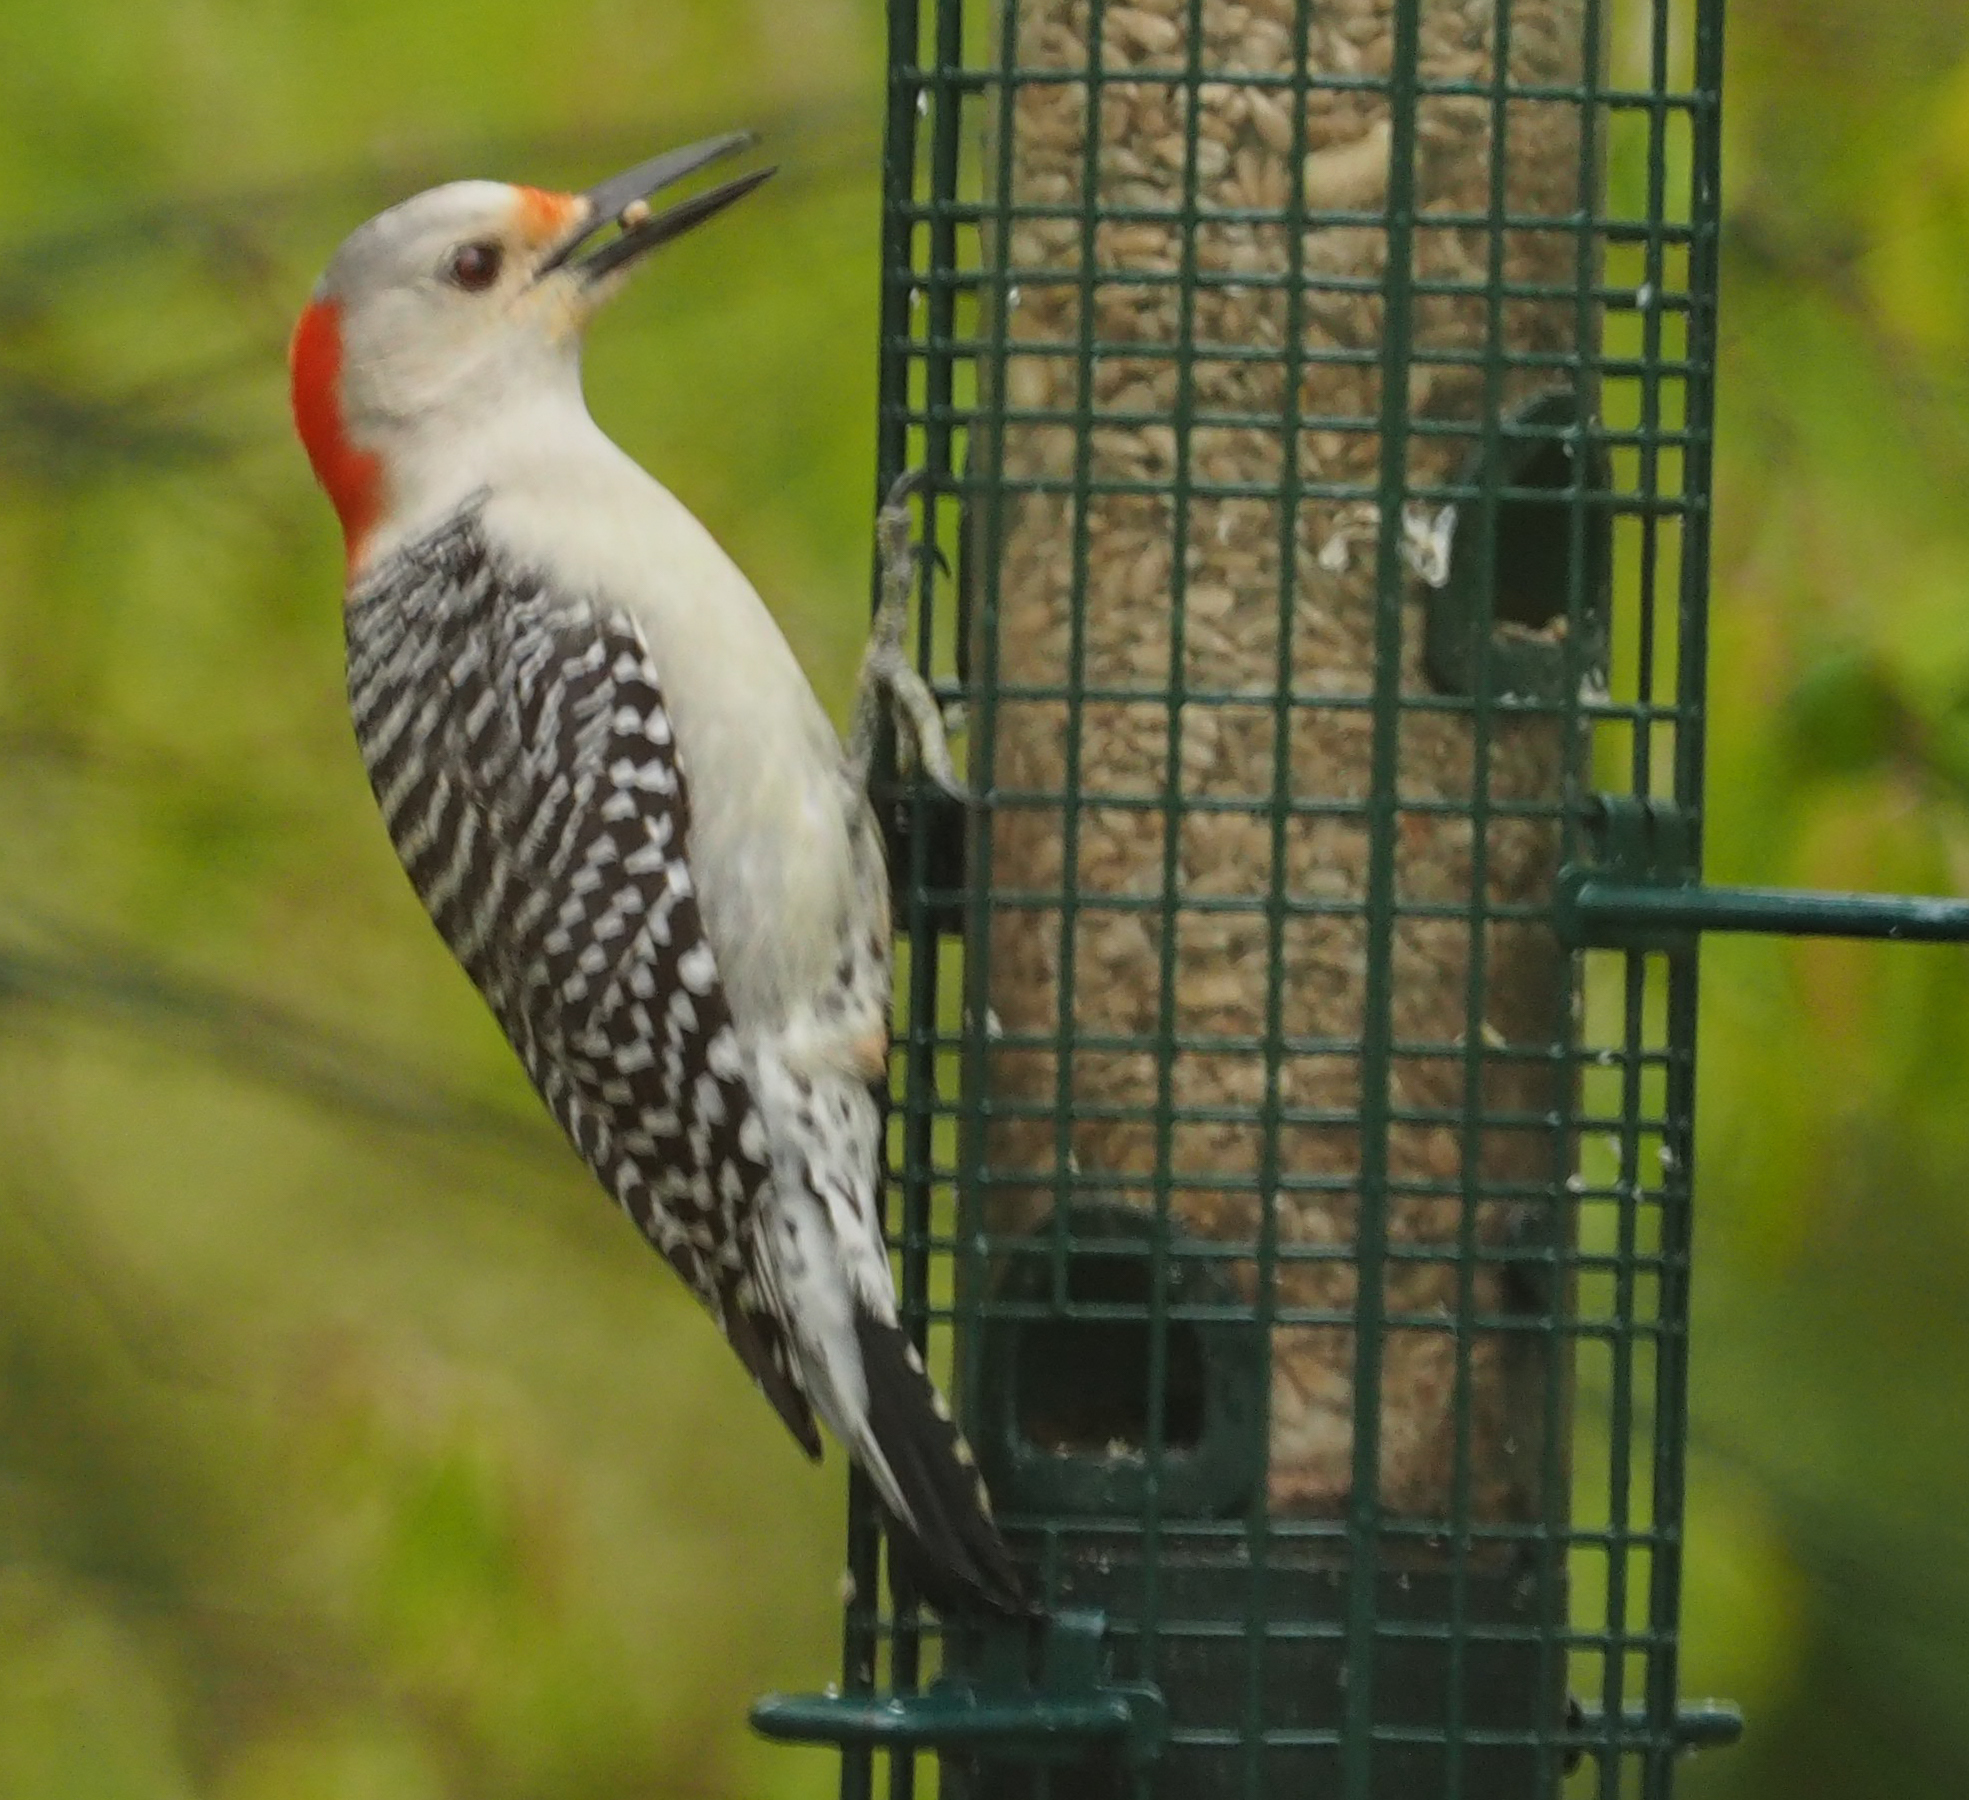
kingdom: Animalia
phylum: Chordata
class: Aves
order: Piciformes
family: Picidae
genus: Melanerpes
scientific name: Melanerpes carolinus
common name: Red-bellied woodpecker
